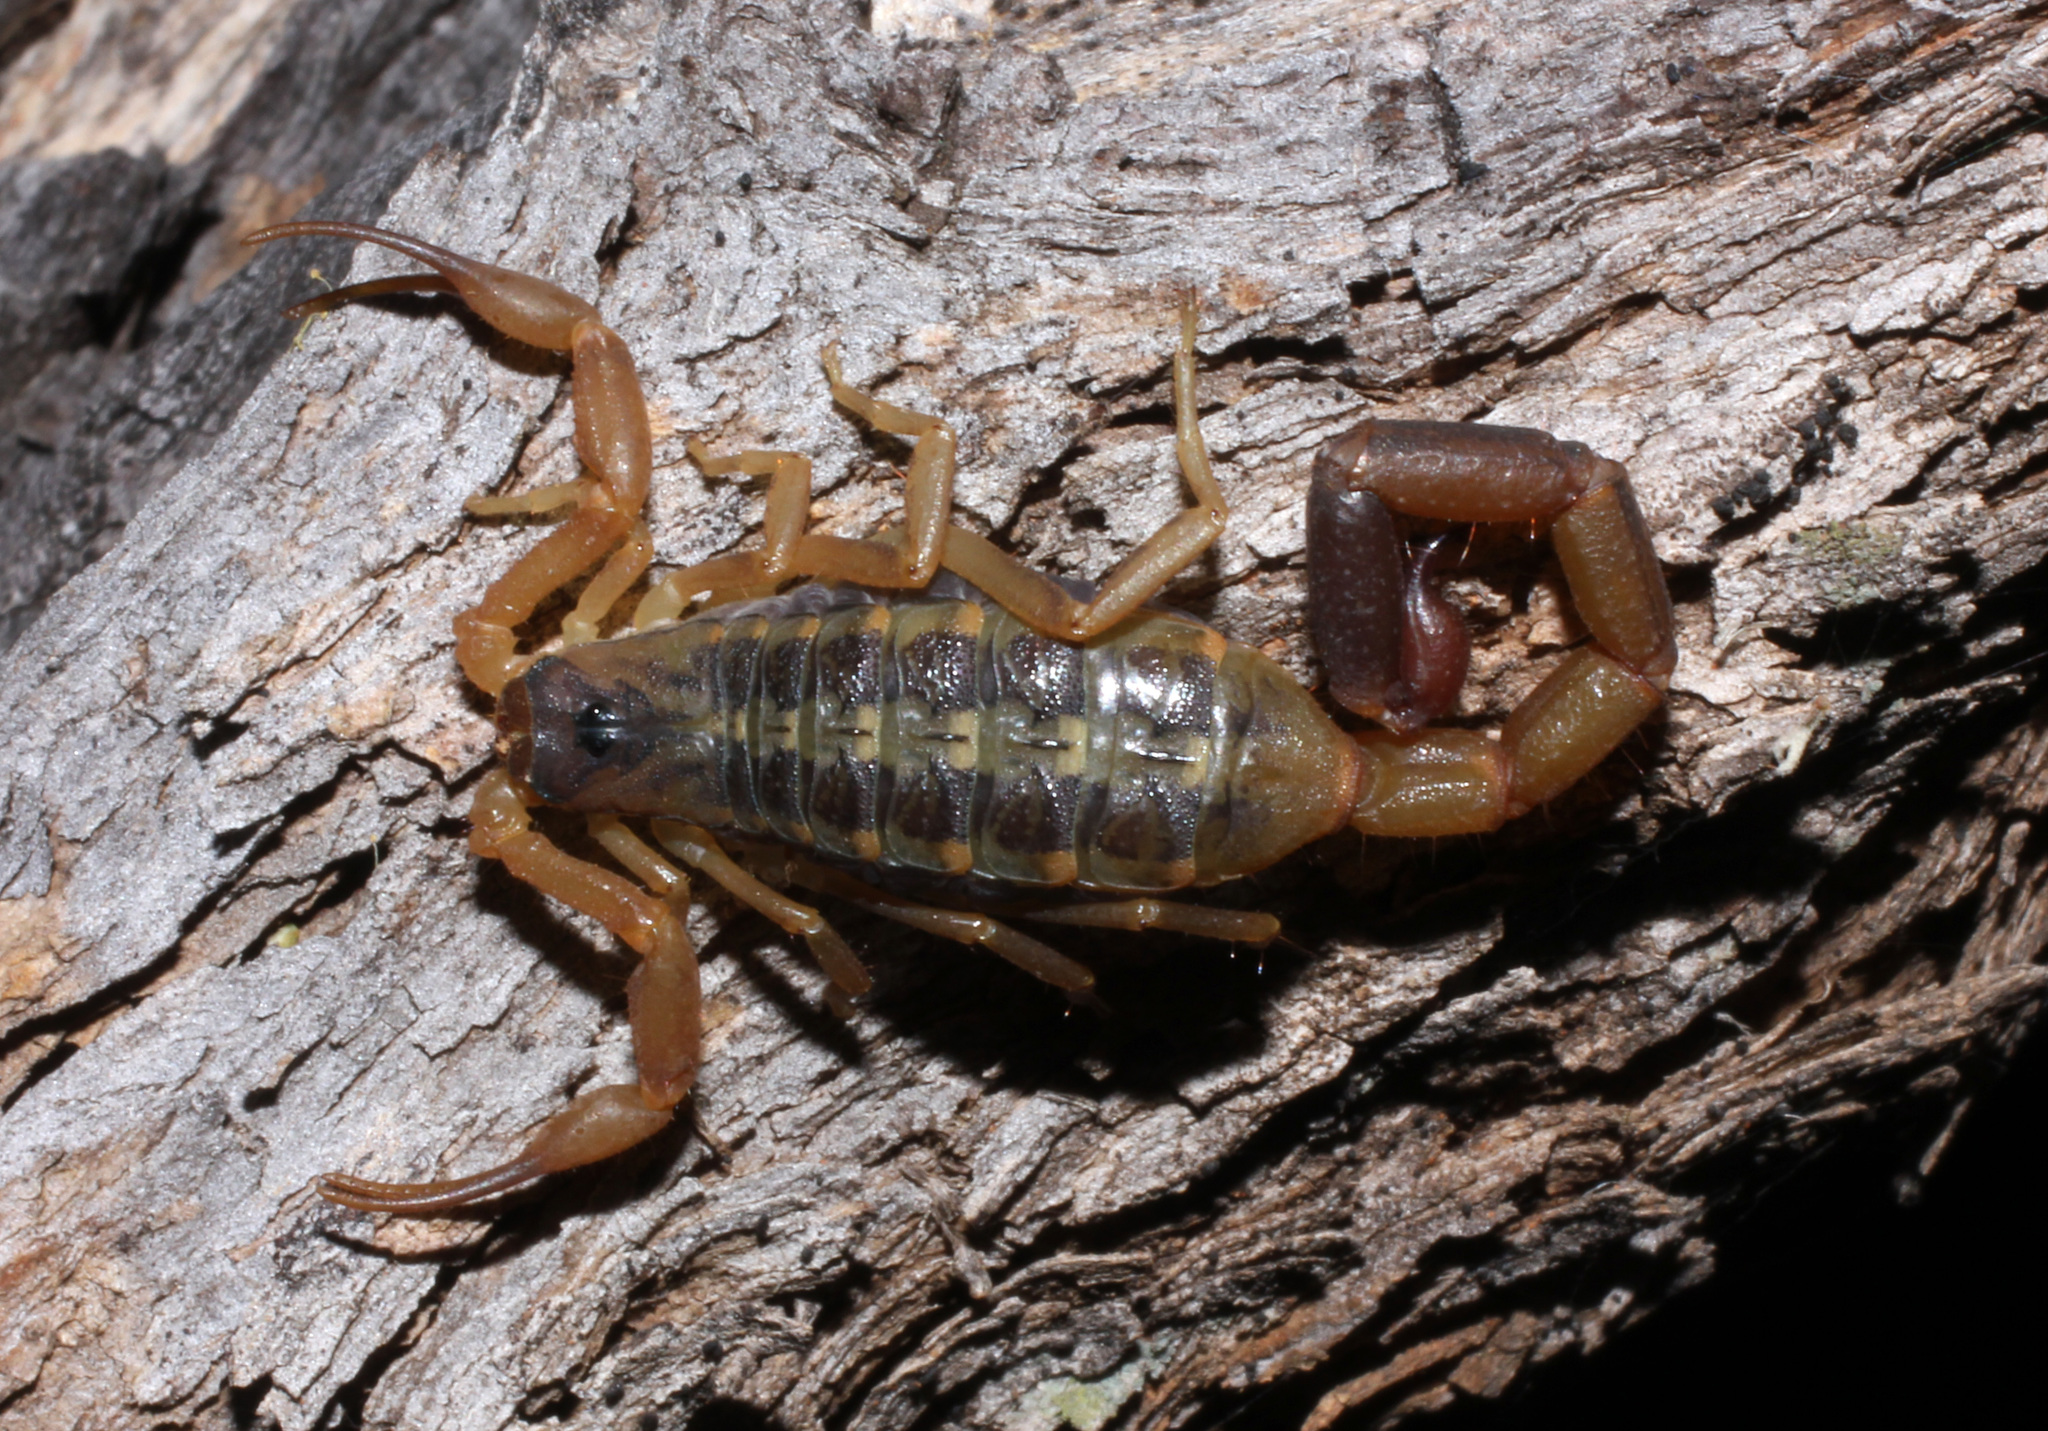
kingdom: Animalia
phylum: Arthropoda
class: Arachnida
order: Scorpiones
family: Buthidae
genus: Uroplectes
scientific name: Uroplectes vittatus
